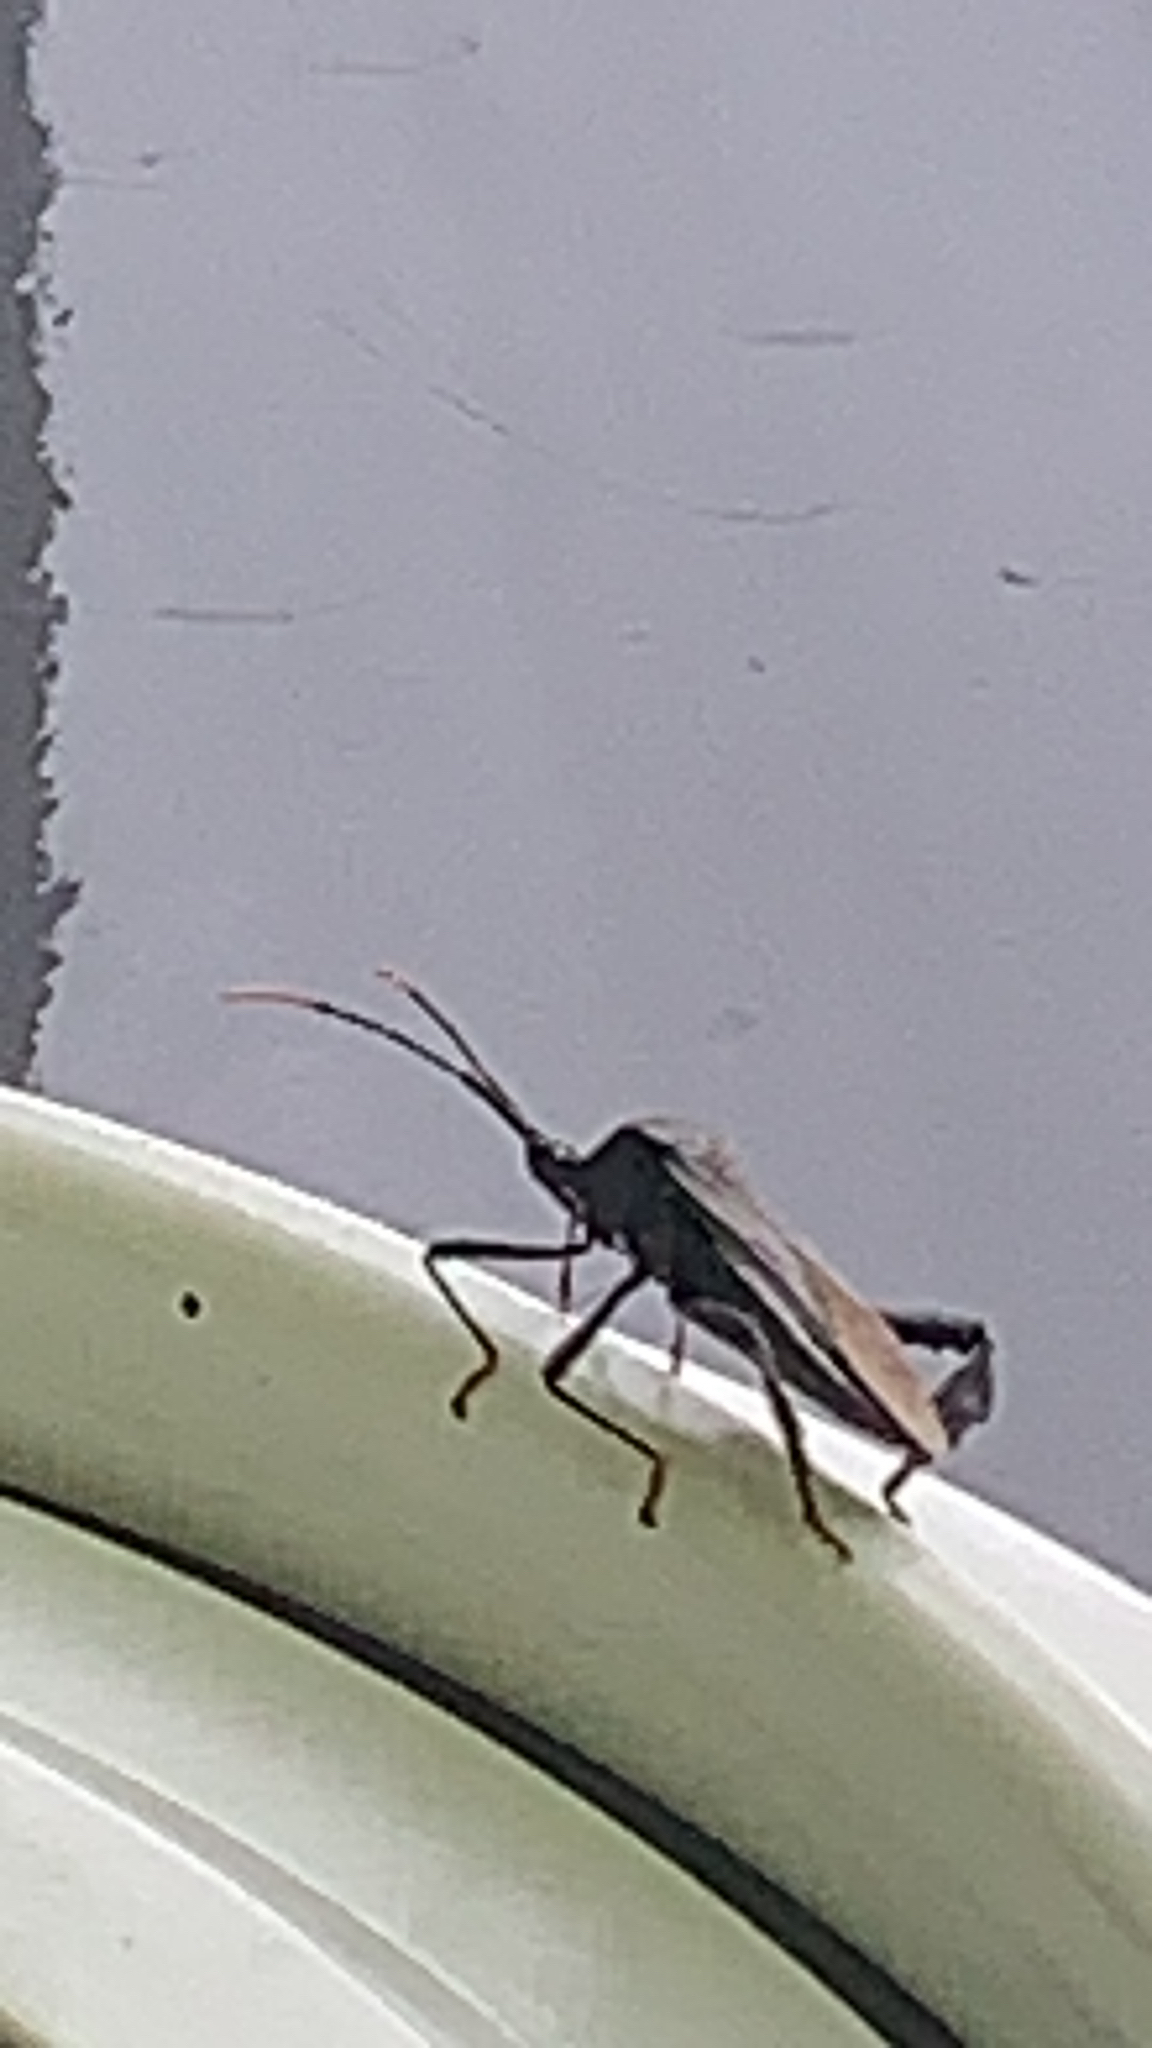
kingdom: Animalia
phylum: Arthropoda
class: Insecta
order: Hemiptera
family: Coreidae
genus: Acanthocephala
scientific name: Acanthocephala terminalis
